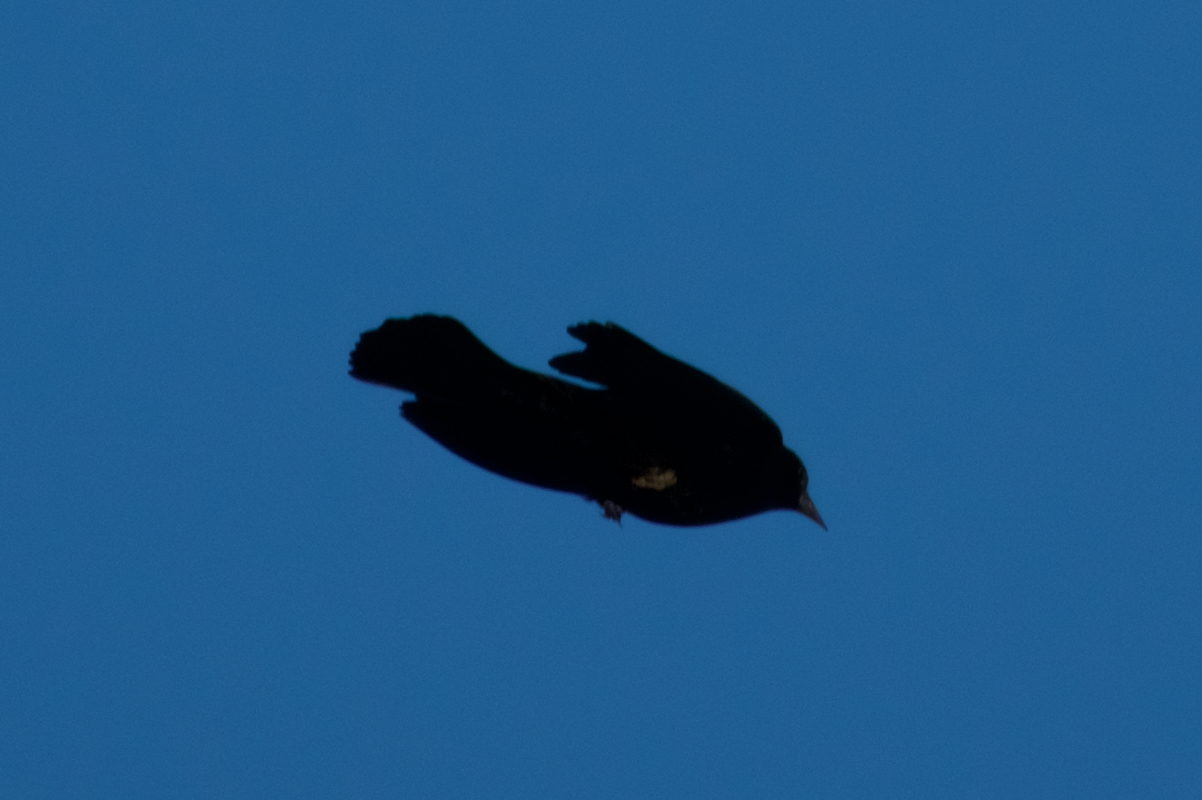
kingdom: Animalia
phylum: Chordata
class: Aves
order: Passeriformes
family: Icteridae
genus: Euphagus
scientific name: Euphagus cyanocephalus
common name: Brewer's blackbird
